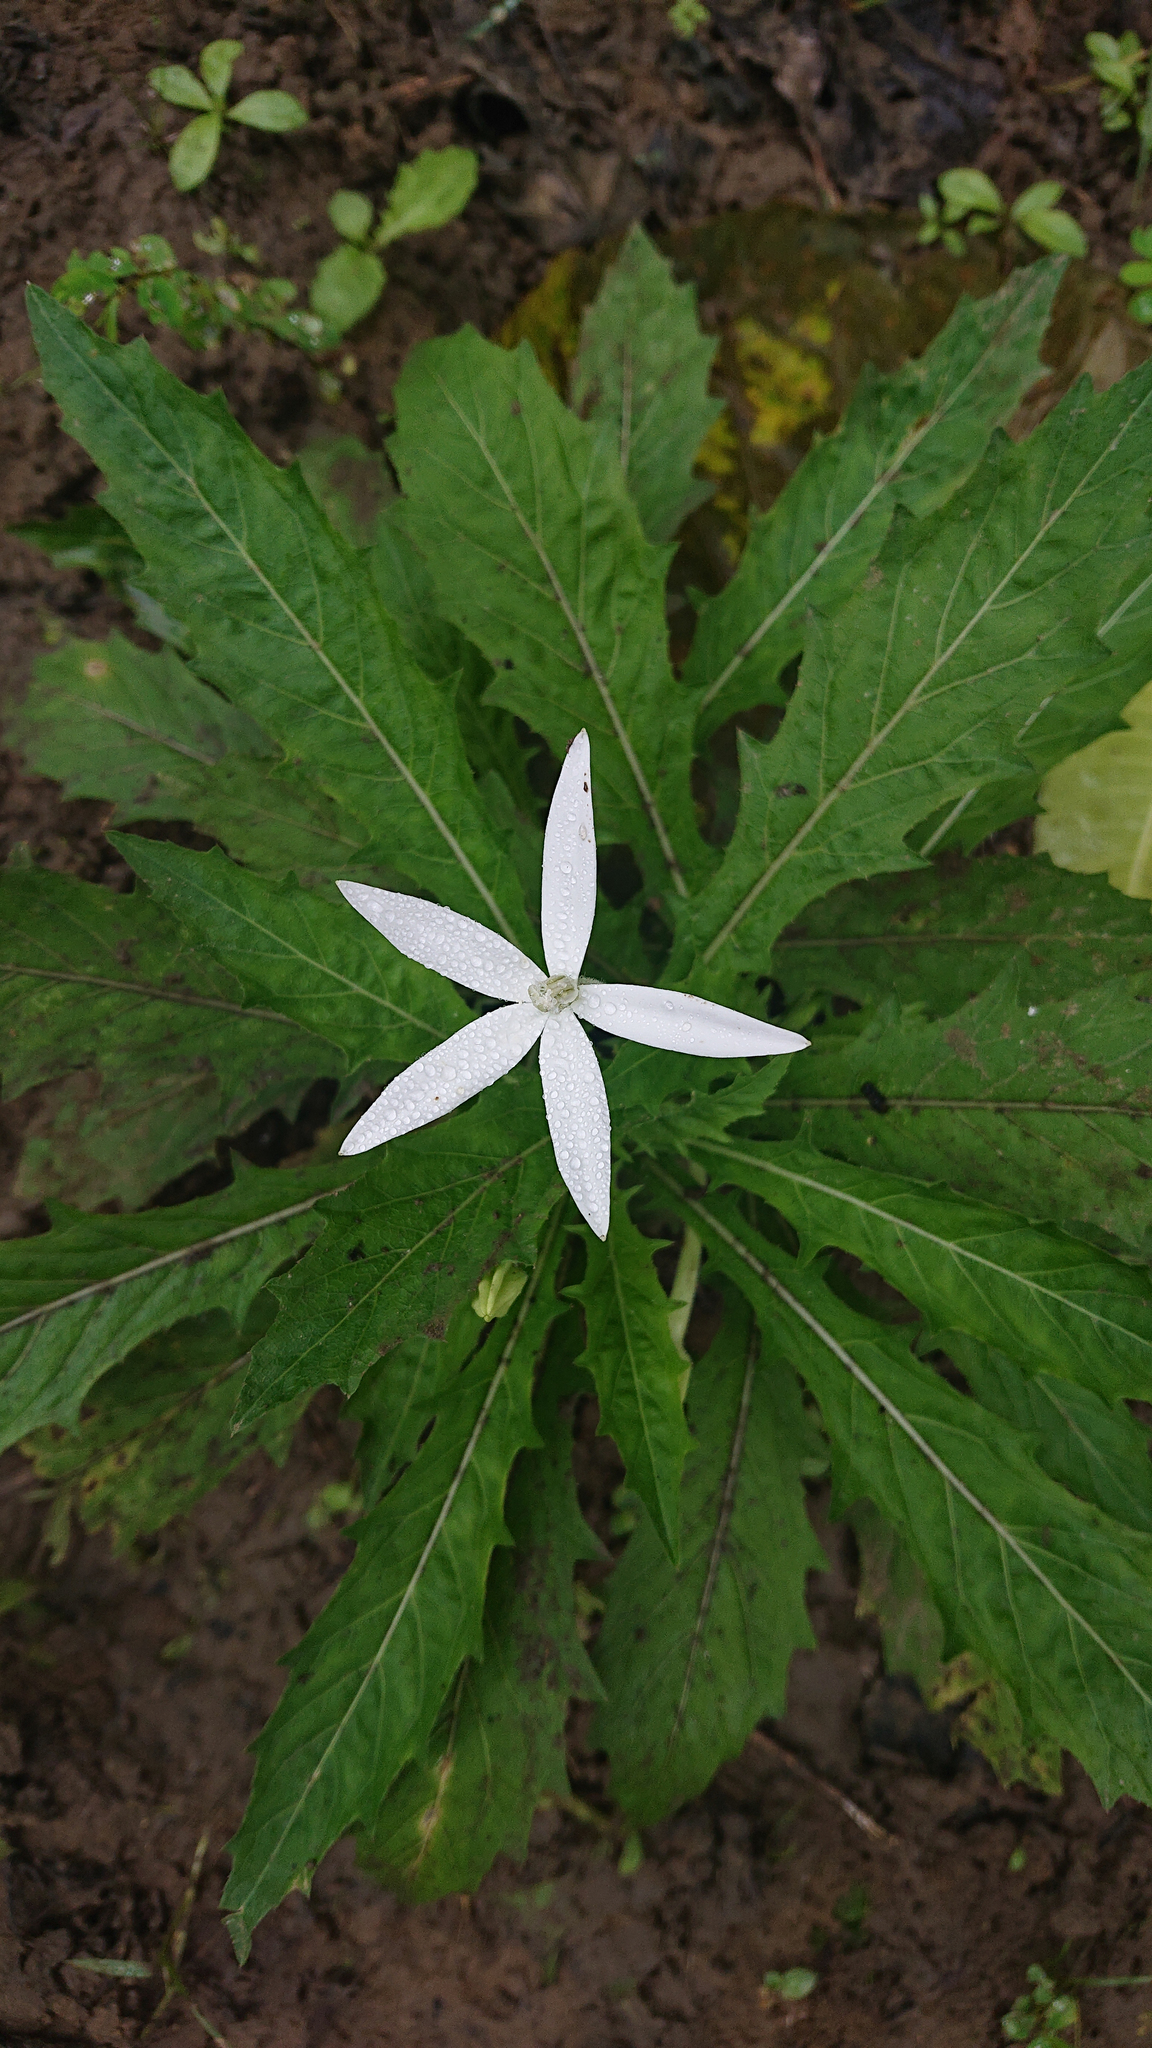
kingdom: Plantae
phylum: Tracheophyta
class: Magnoliopsida
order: Asterales
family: Campanulaceae
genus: Hippobroma
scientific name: Hippobroma longiflora
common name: Madamfate
